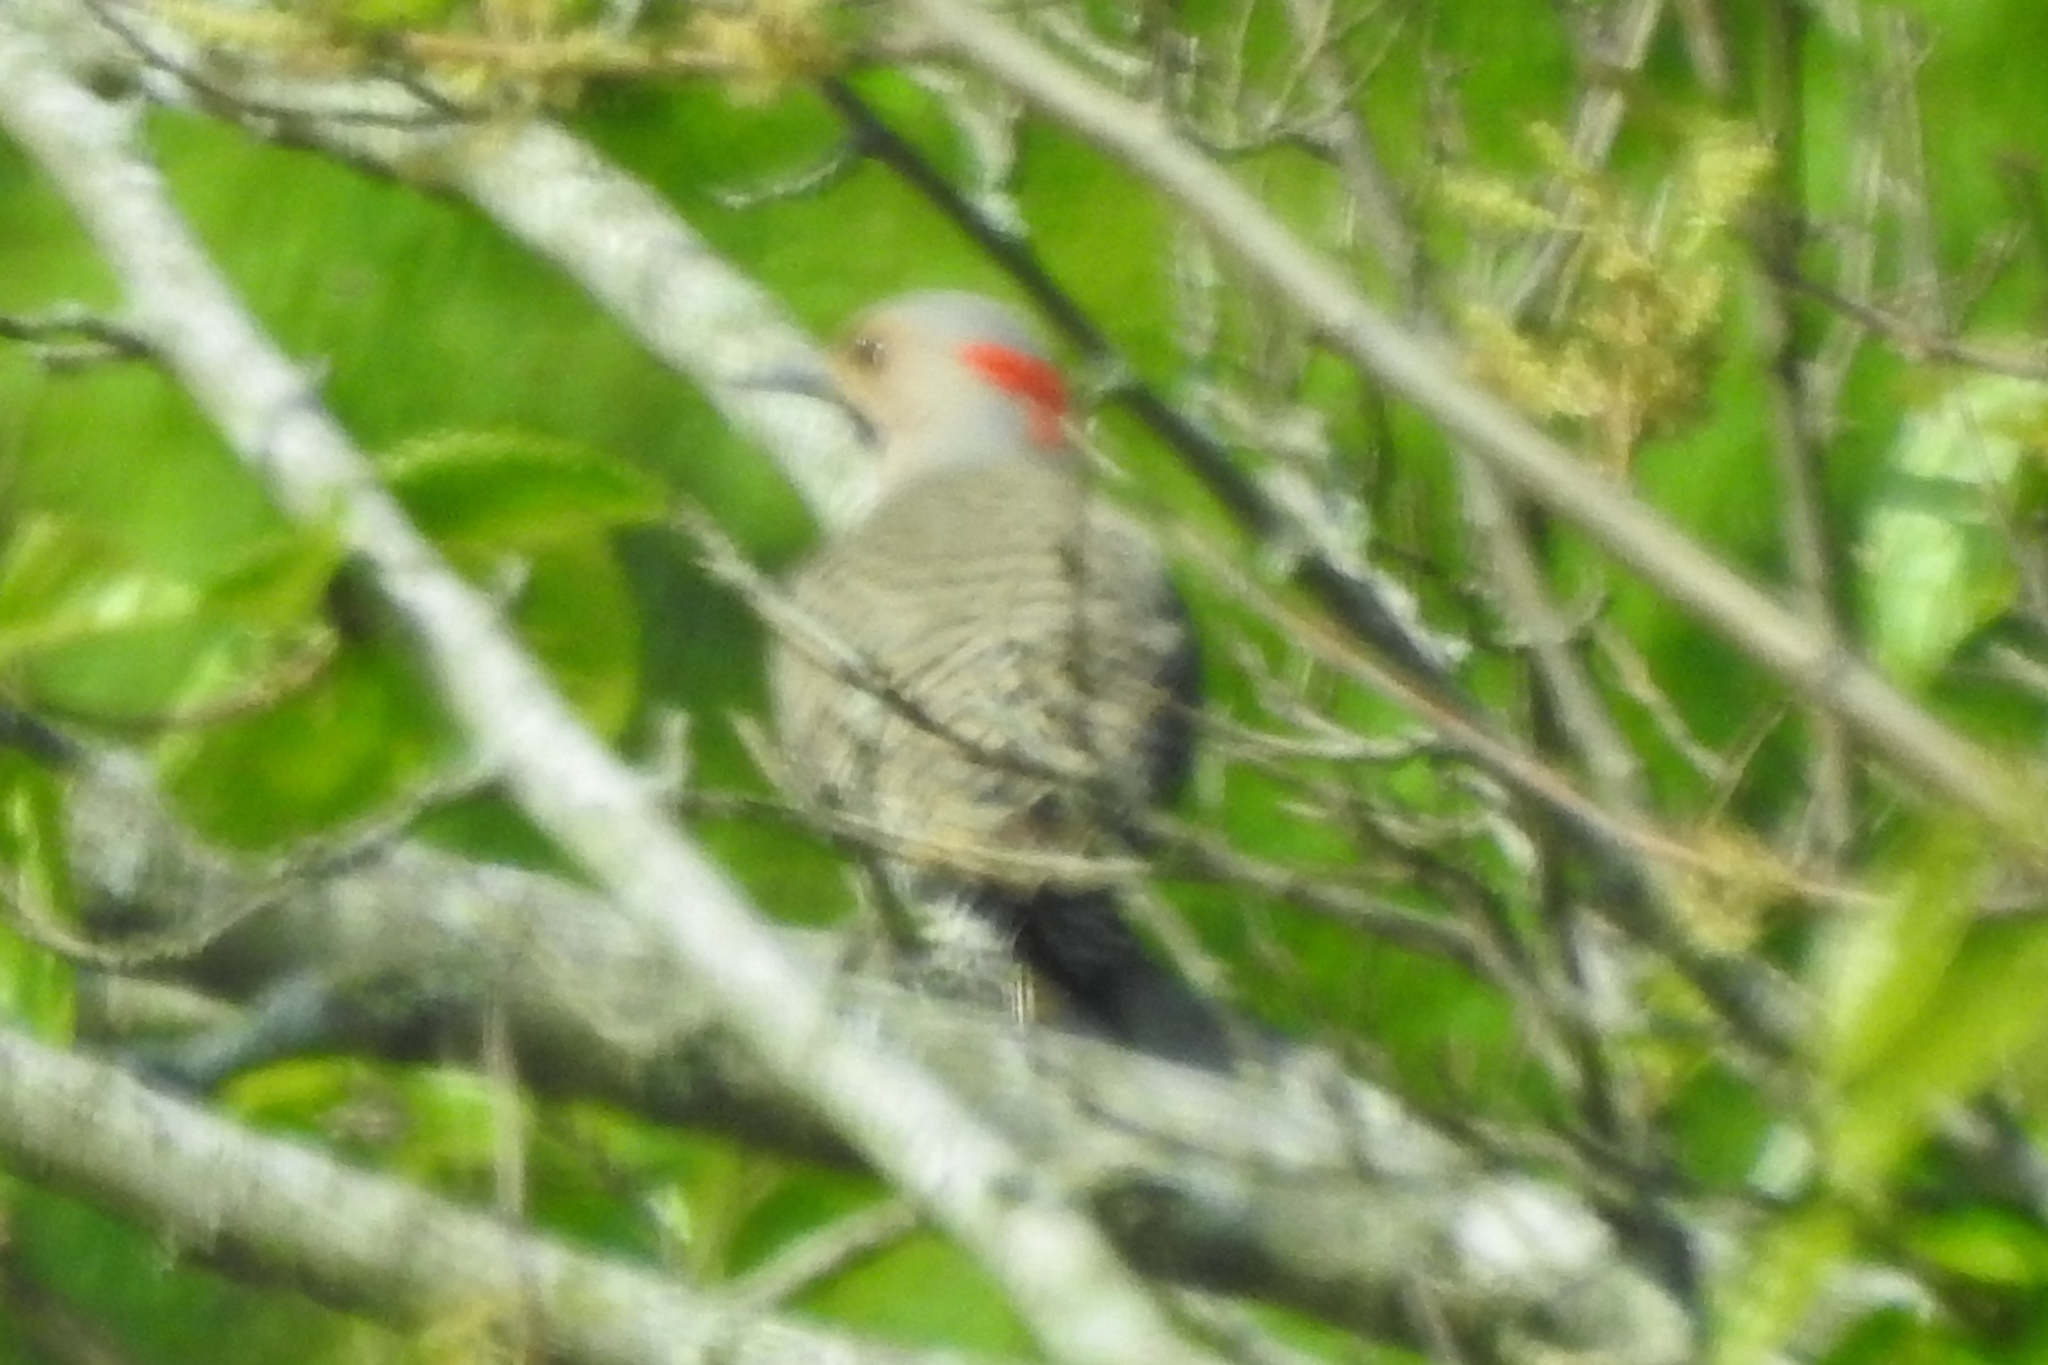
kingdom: Animalia
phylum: Chordata
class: Aves
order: Piciformes
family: Picidae
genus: Colaptes
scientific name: Colaptes auratus
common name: Northern flicker
